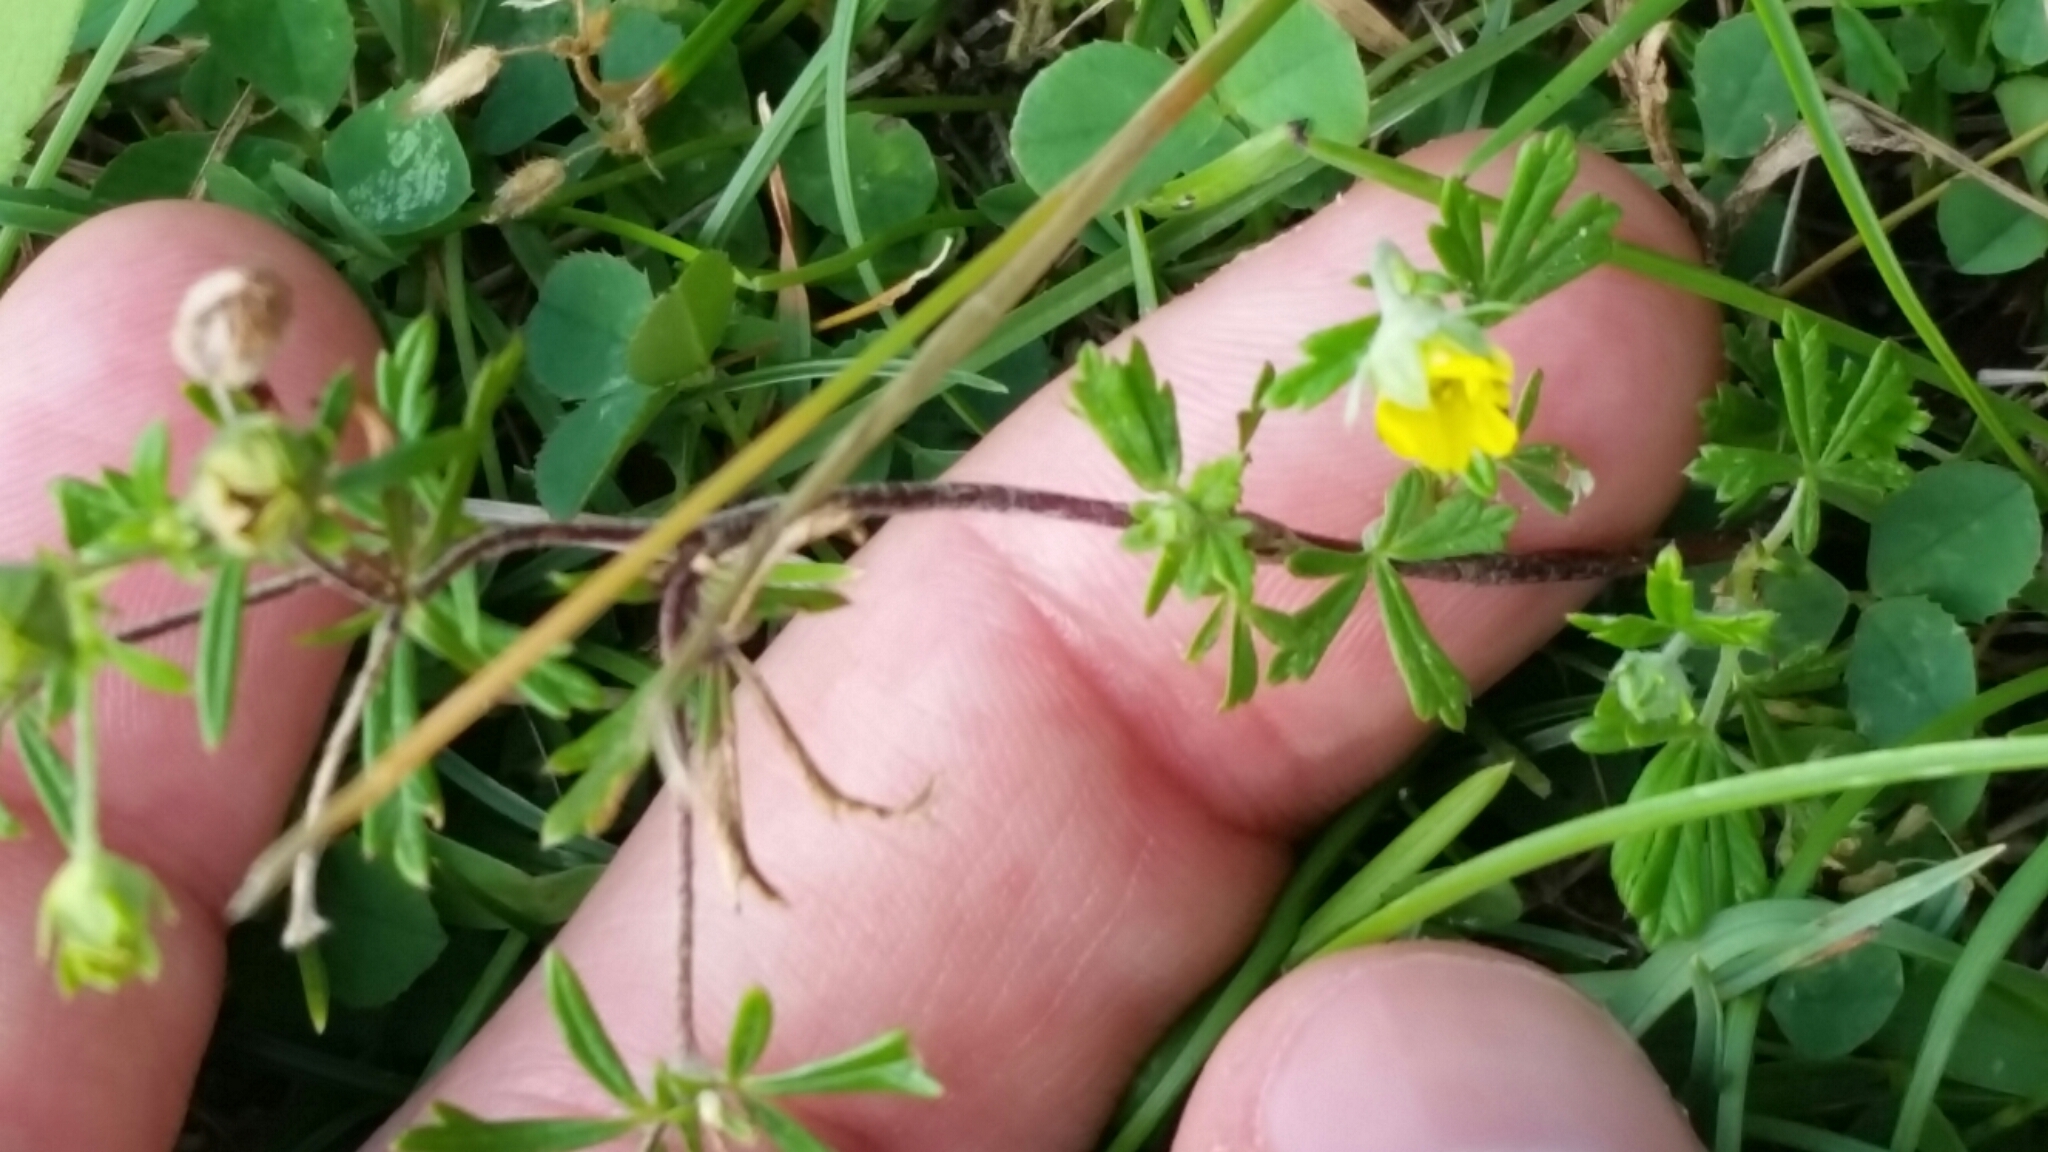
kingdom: Plantae
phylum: Tracheophyta
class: Magnoliopsida
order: Rosales
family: Rosaceae
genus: Potentilla
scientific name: Potentilla argentea
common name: Hoary cinquefoil
